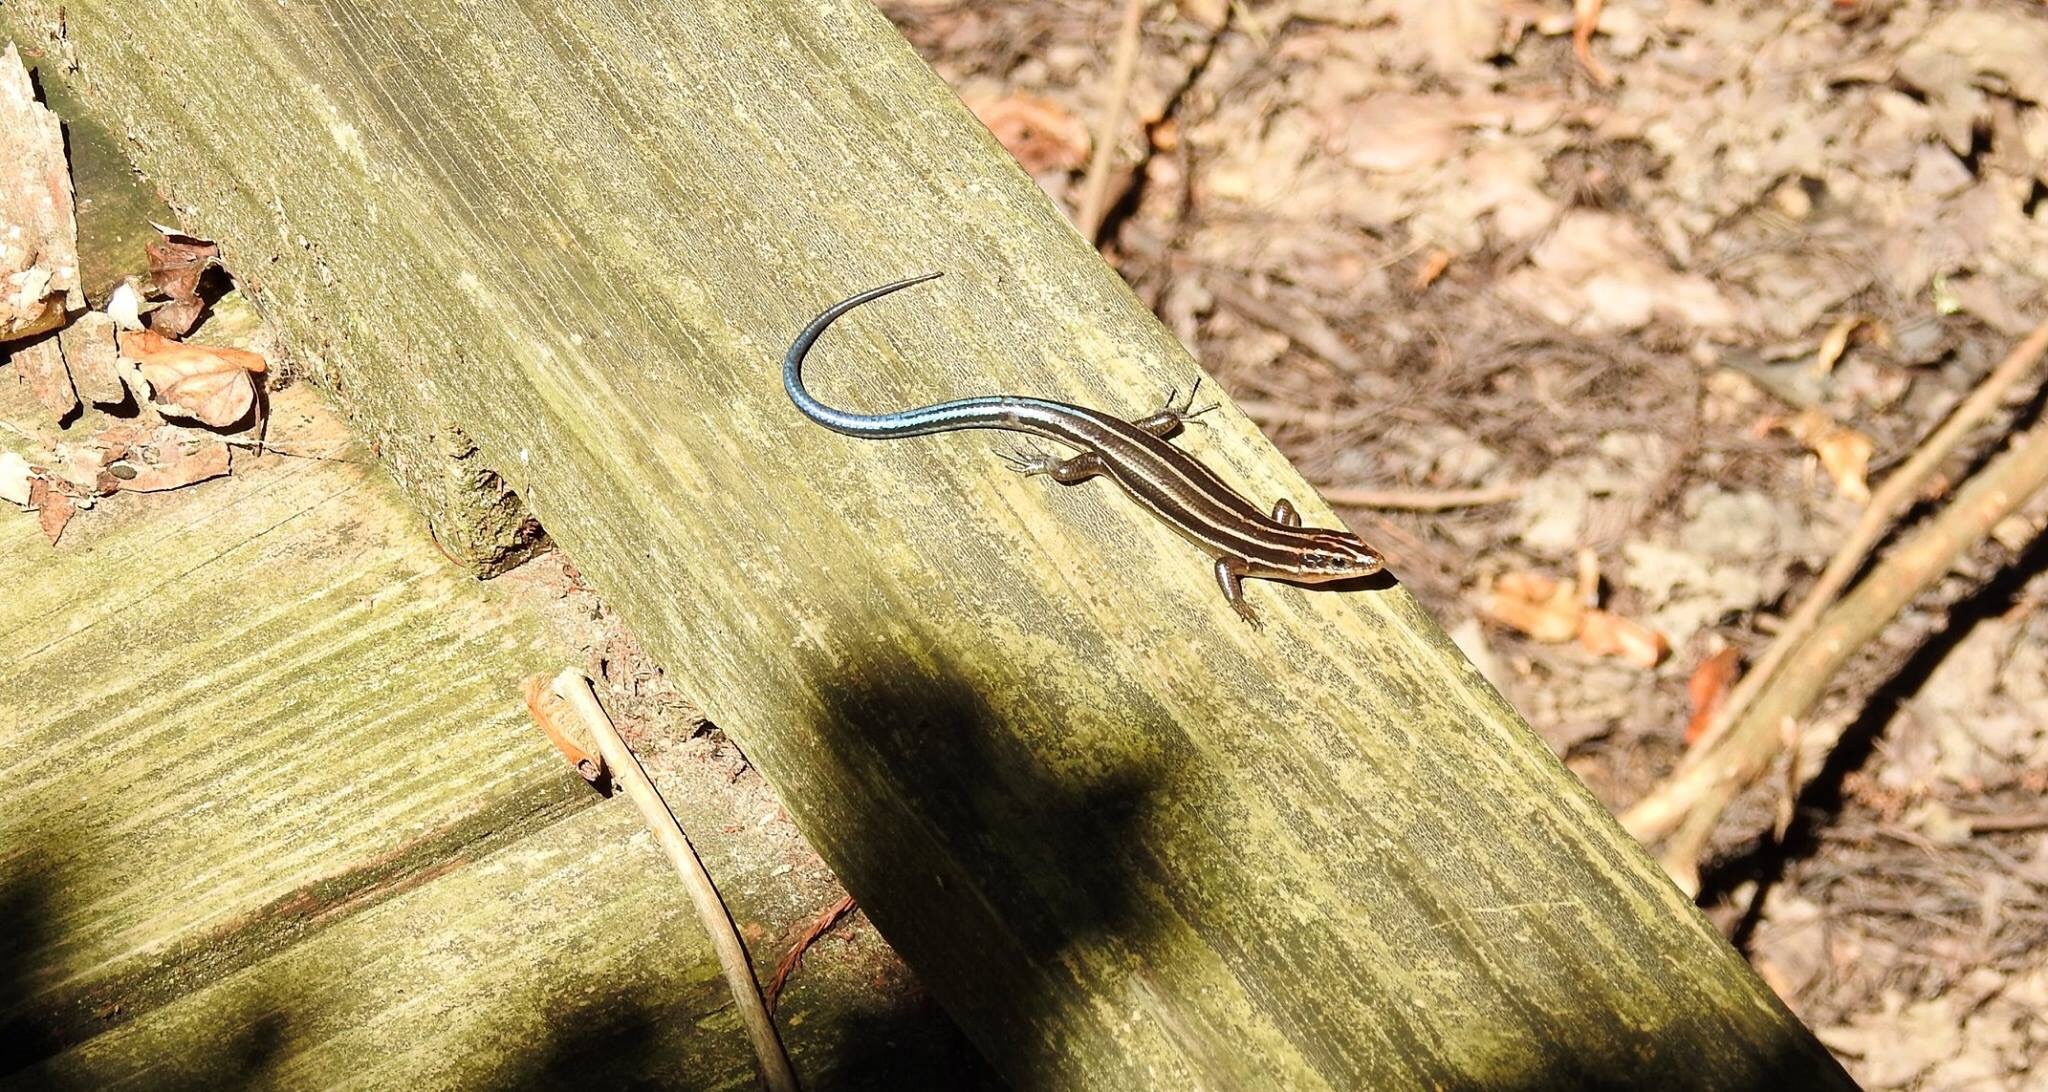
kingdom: Animalia
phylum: Chordata
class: Squamata
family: Scincidae
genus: Plestiodon
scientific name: Plestiodon
